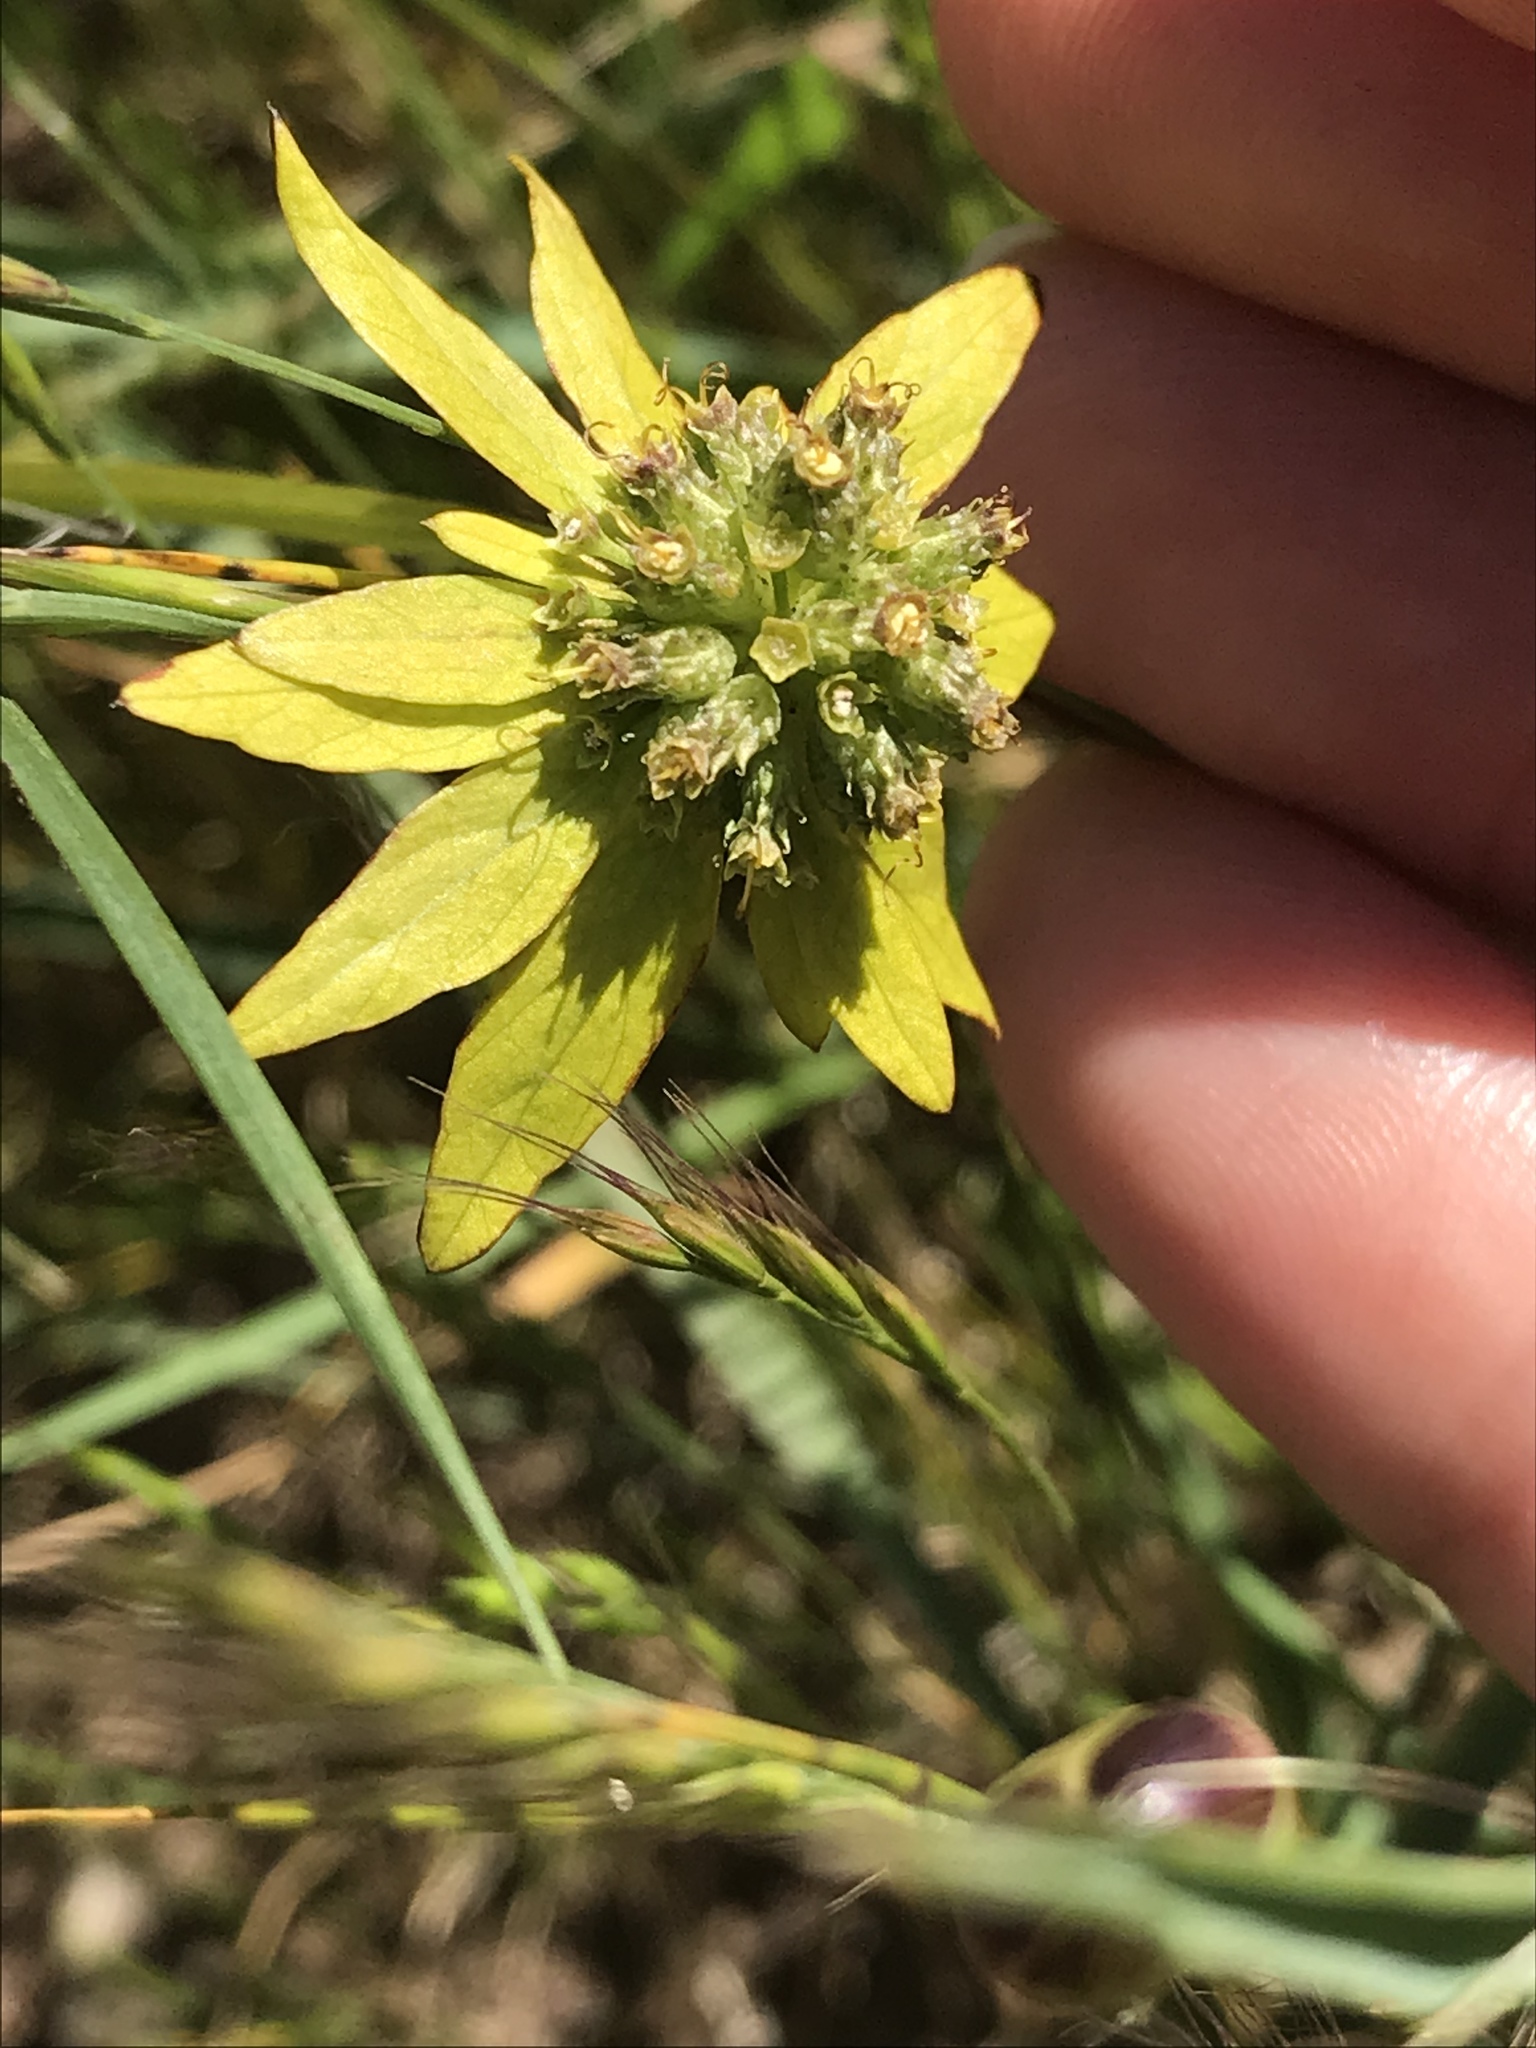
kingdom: Plantae
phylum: Tracheophyta
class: Magnoliopsida
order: Apiales
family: Apiaceae
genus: Sanicula
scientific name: Sanicula arctopoides
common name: Footsteps-of-spring
